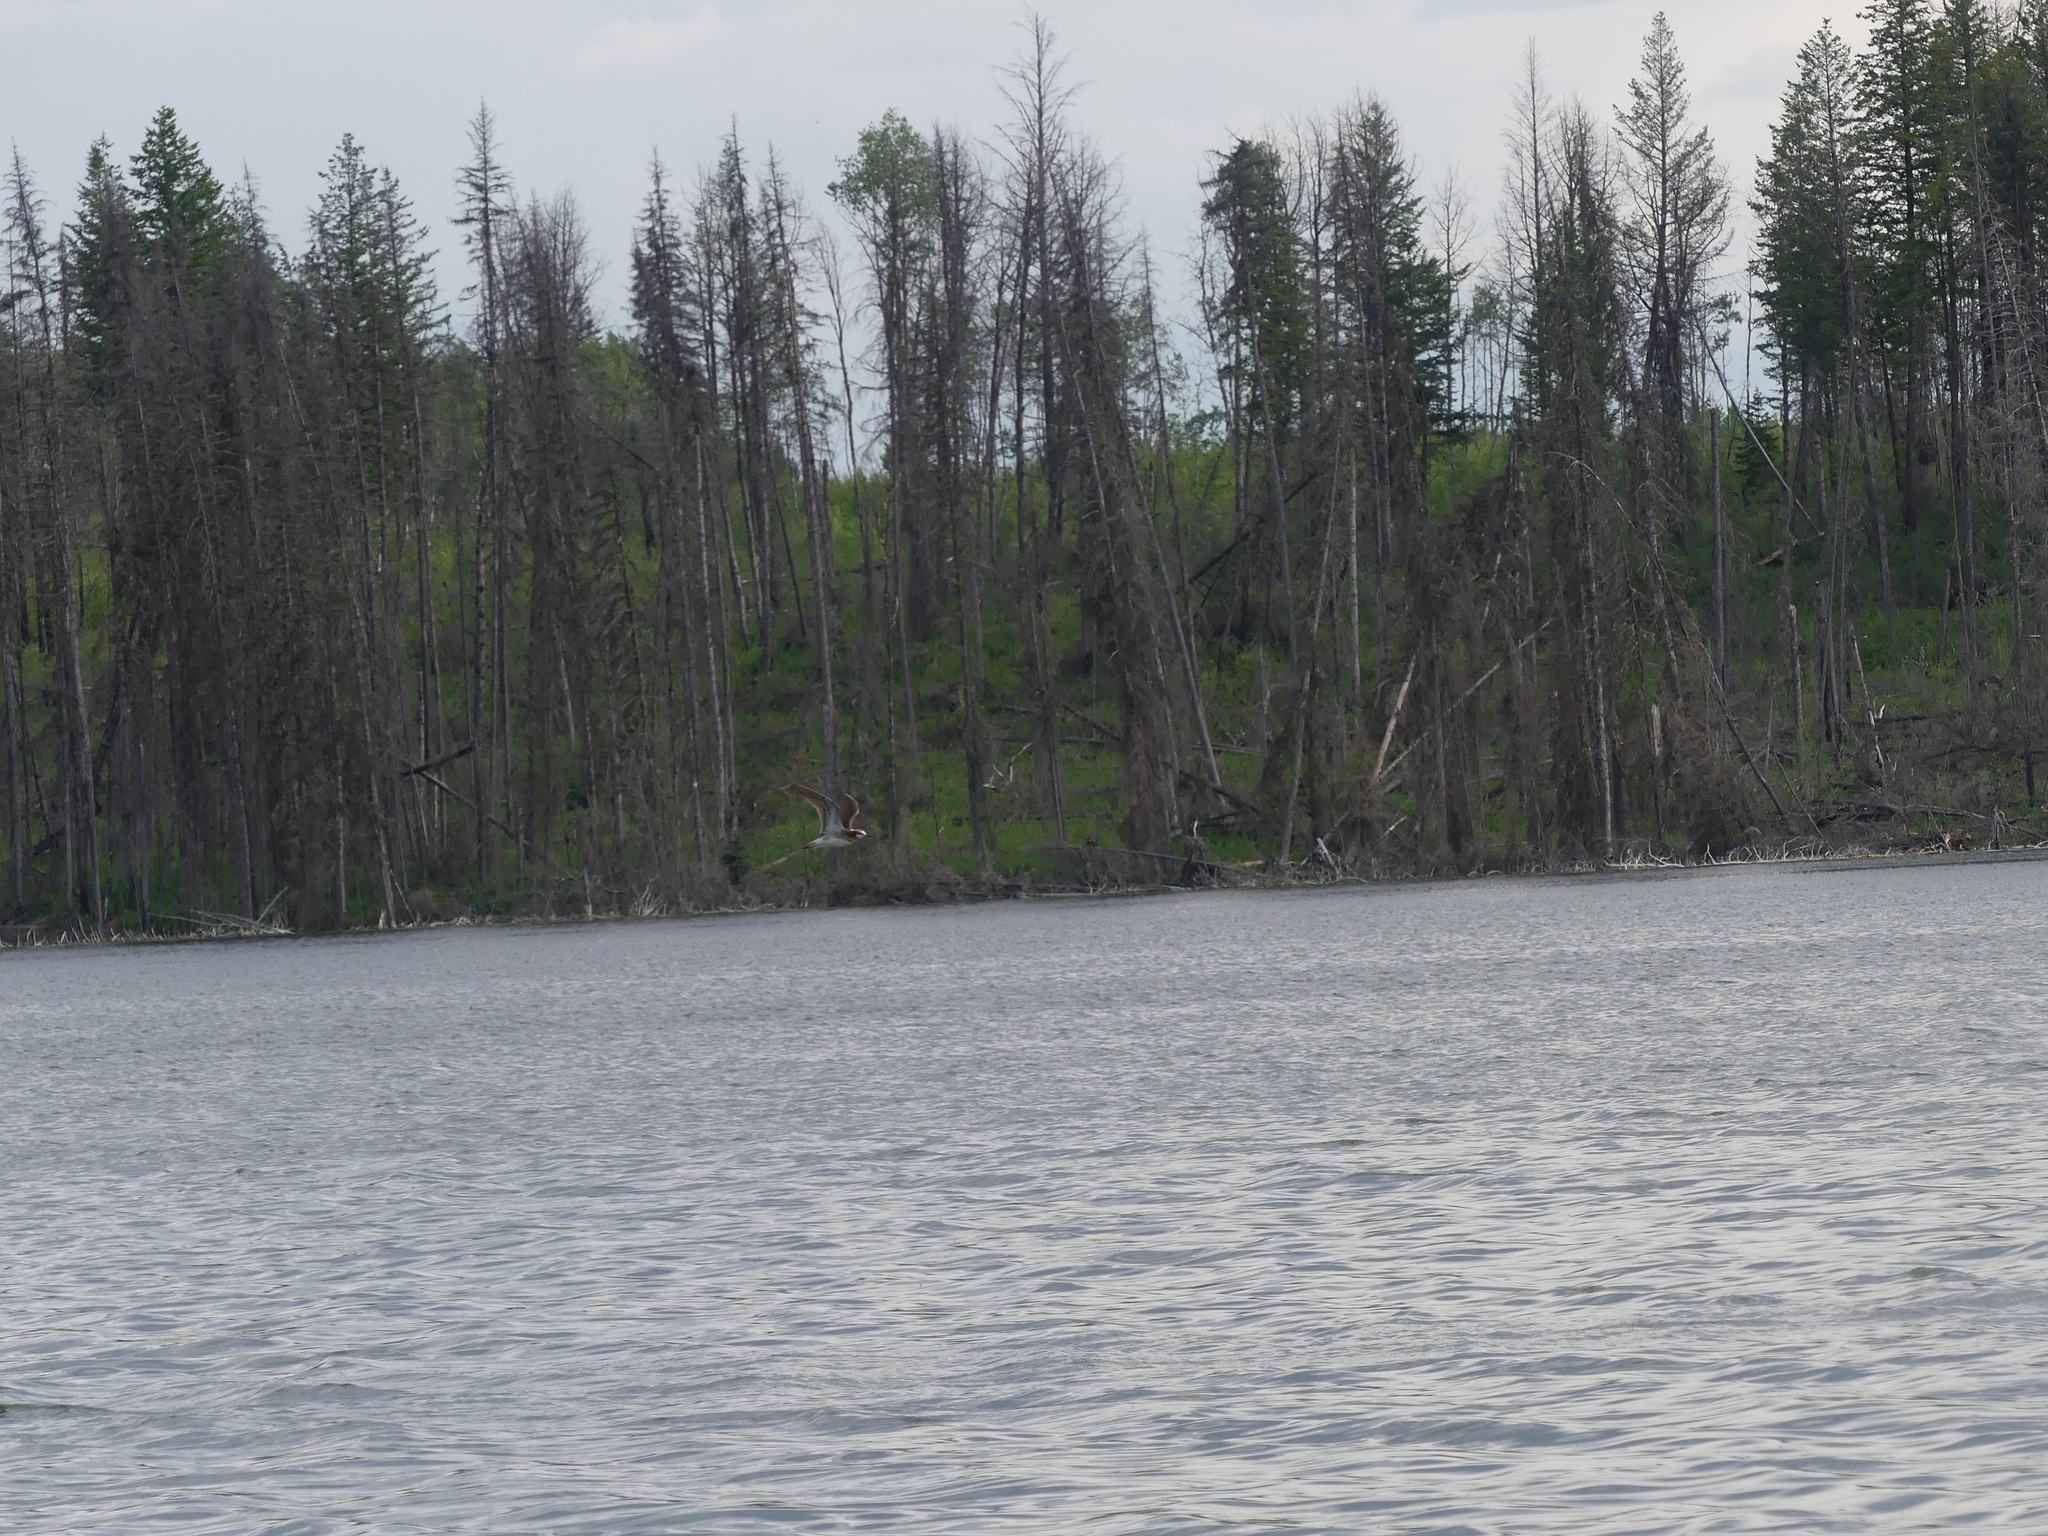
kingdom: Animalia
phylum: Chordata
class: Aves
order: Charadriiformes
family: Scolopacidae
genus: Phalaropus
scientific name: Phalaropus tricolor
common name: Wilson's phalarope
